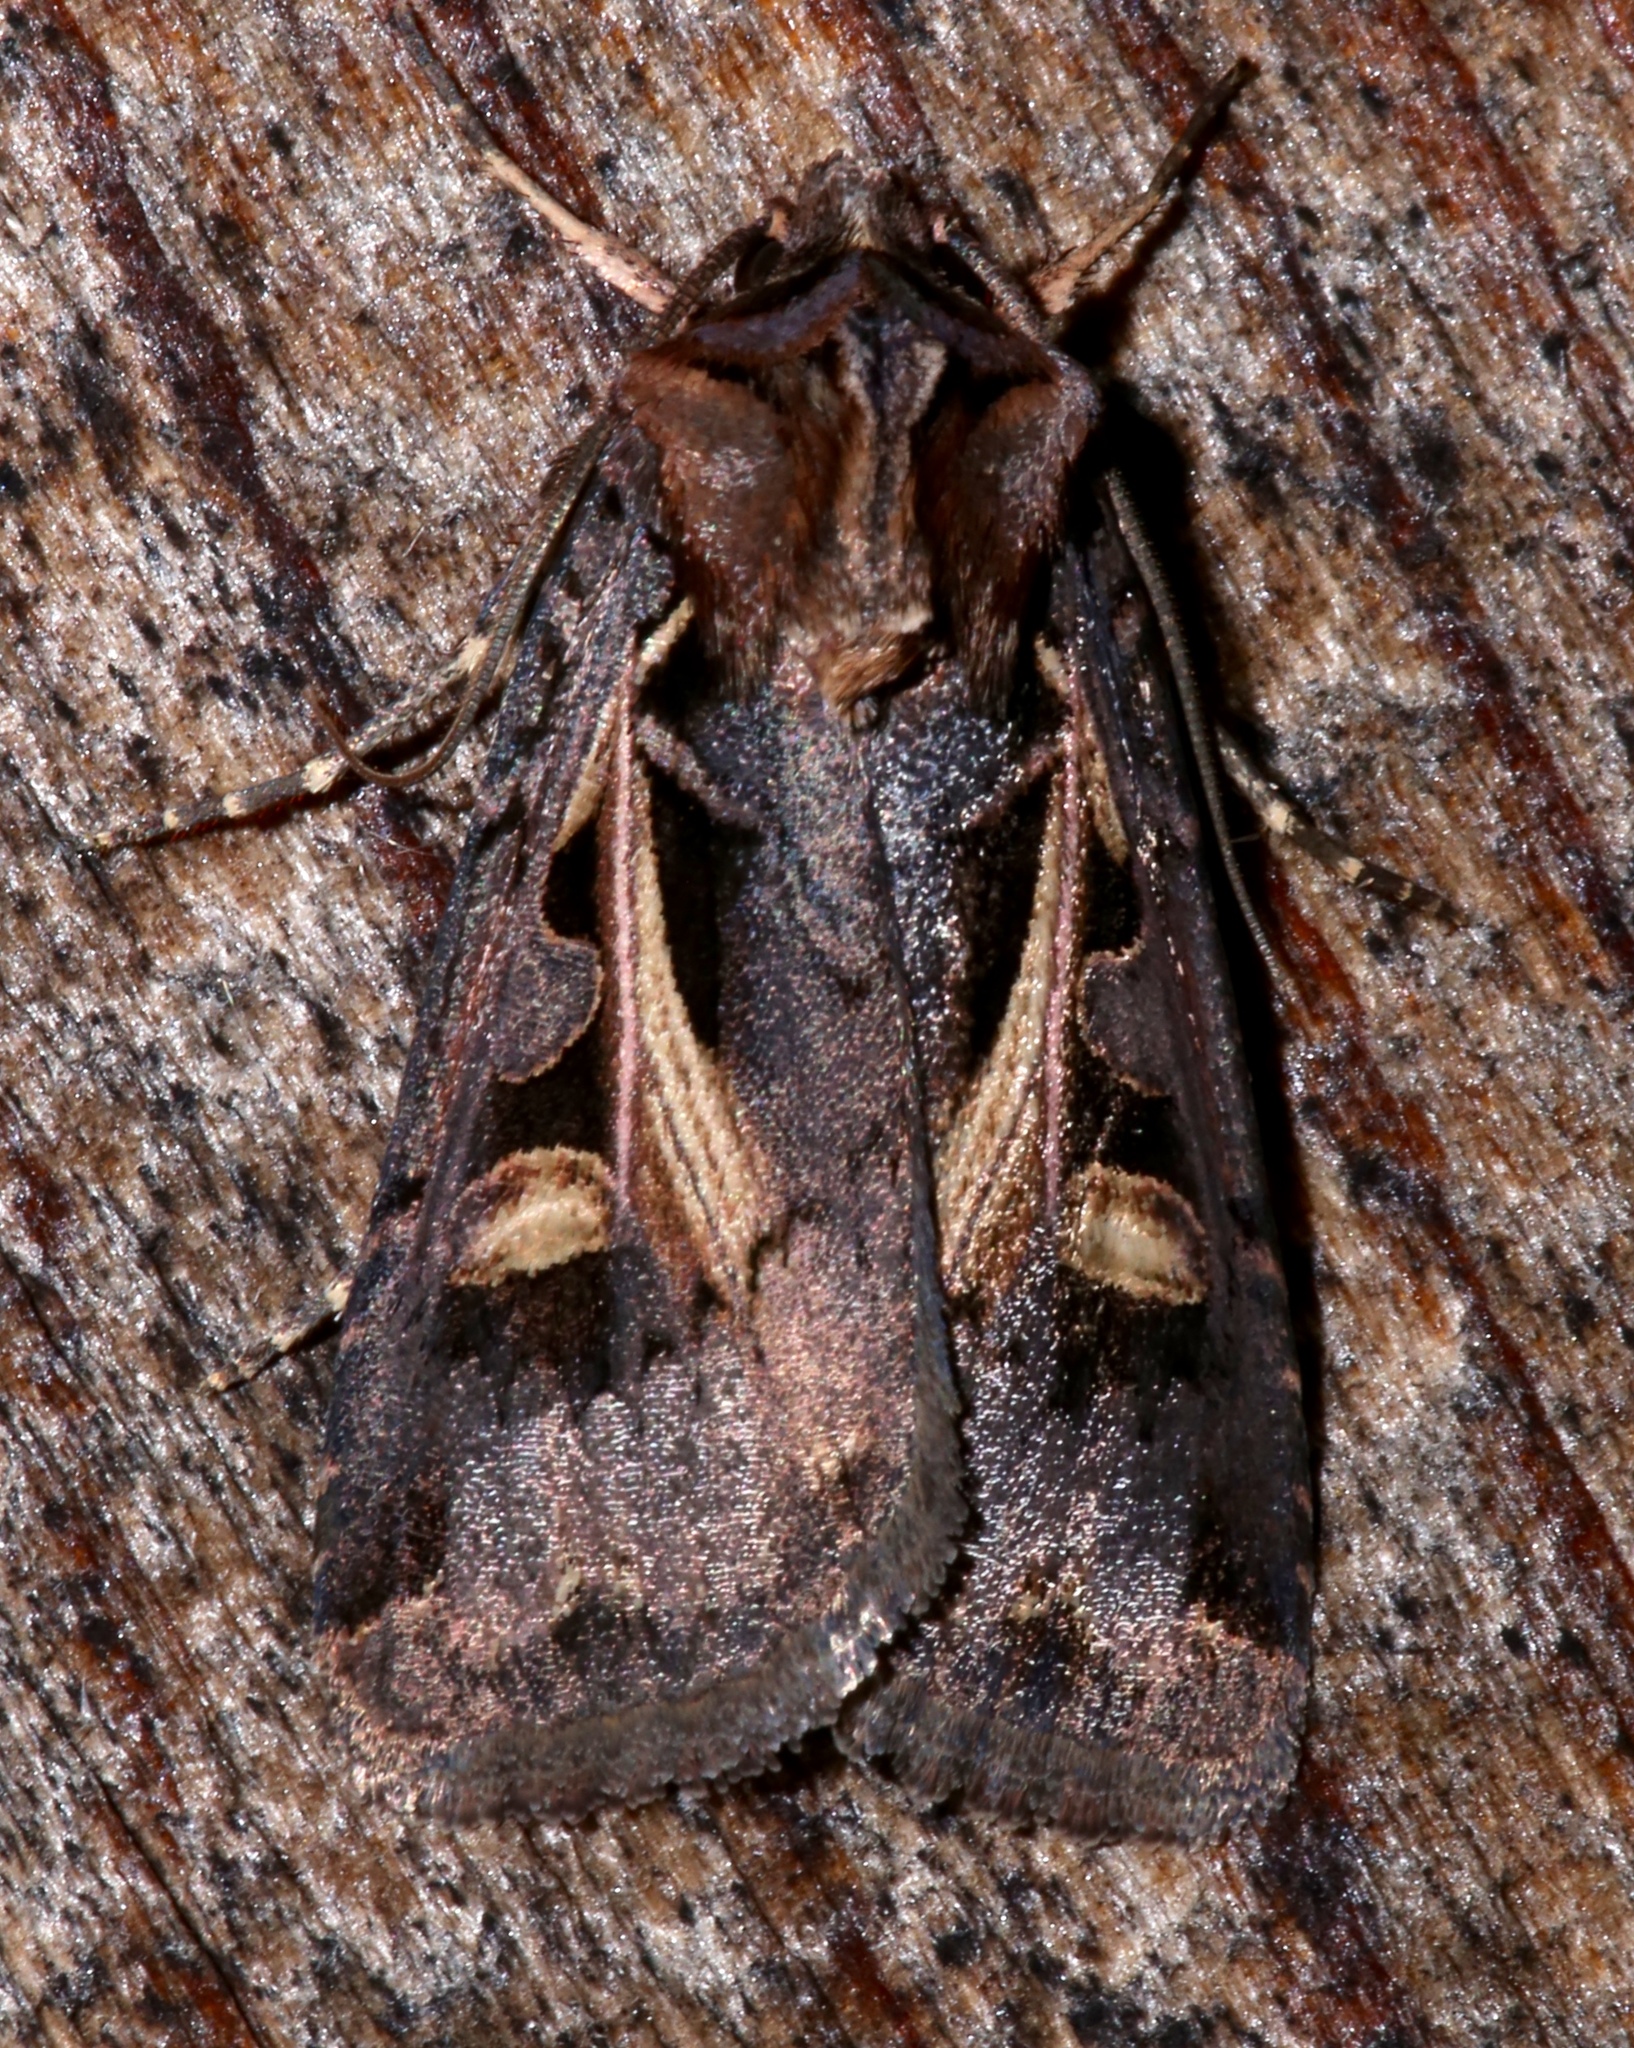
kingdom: Animalia
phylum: Arthropoda
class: Insecta
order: Lepidoptera
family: Noctuidae
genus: Feltia
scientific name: Feltia herilis
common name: Master's dart
